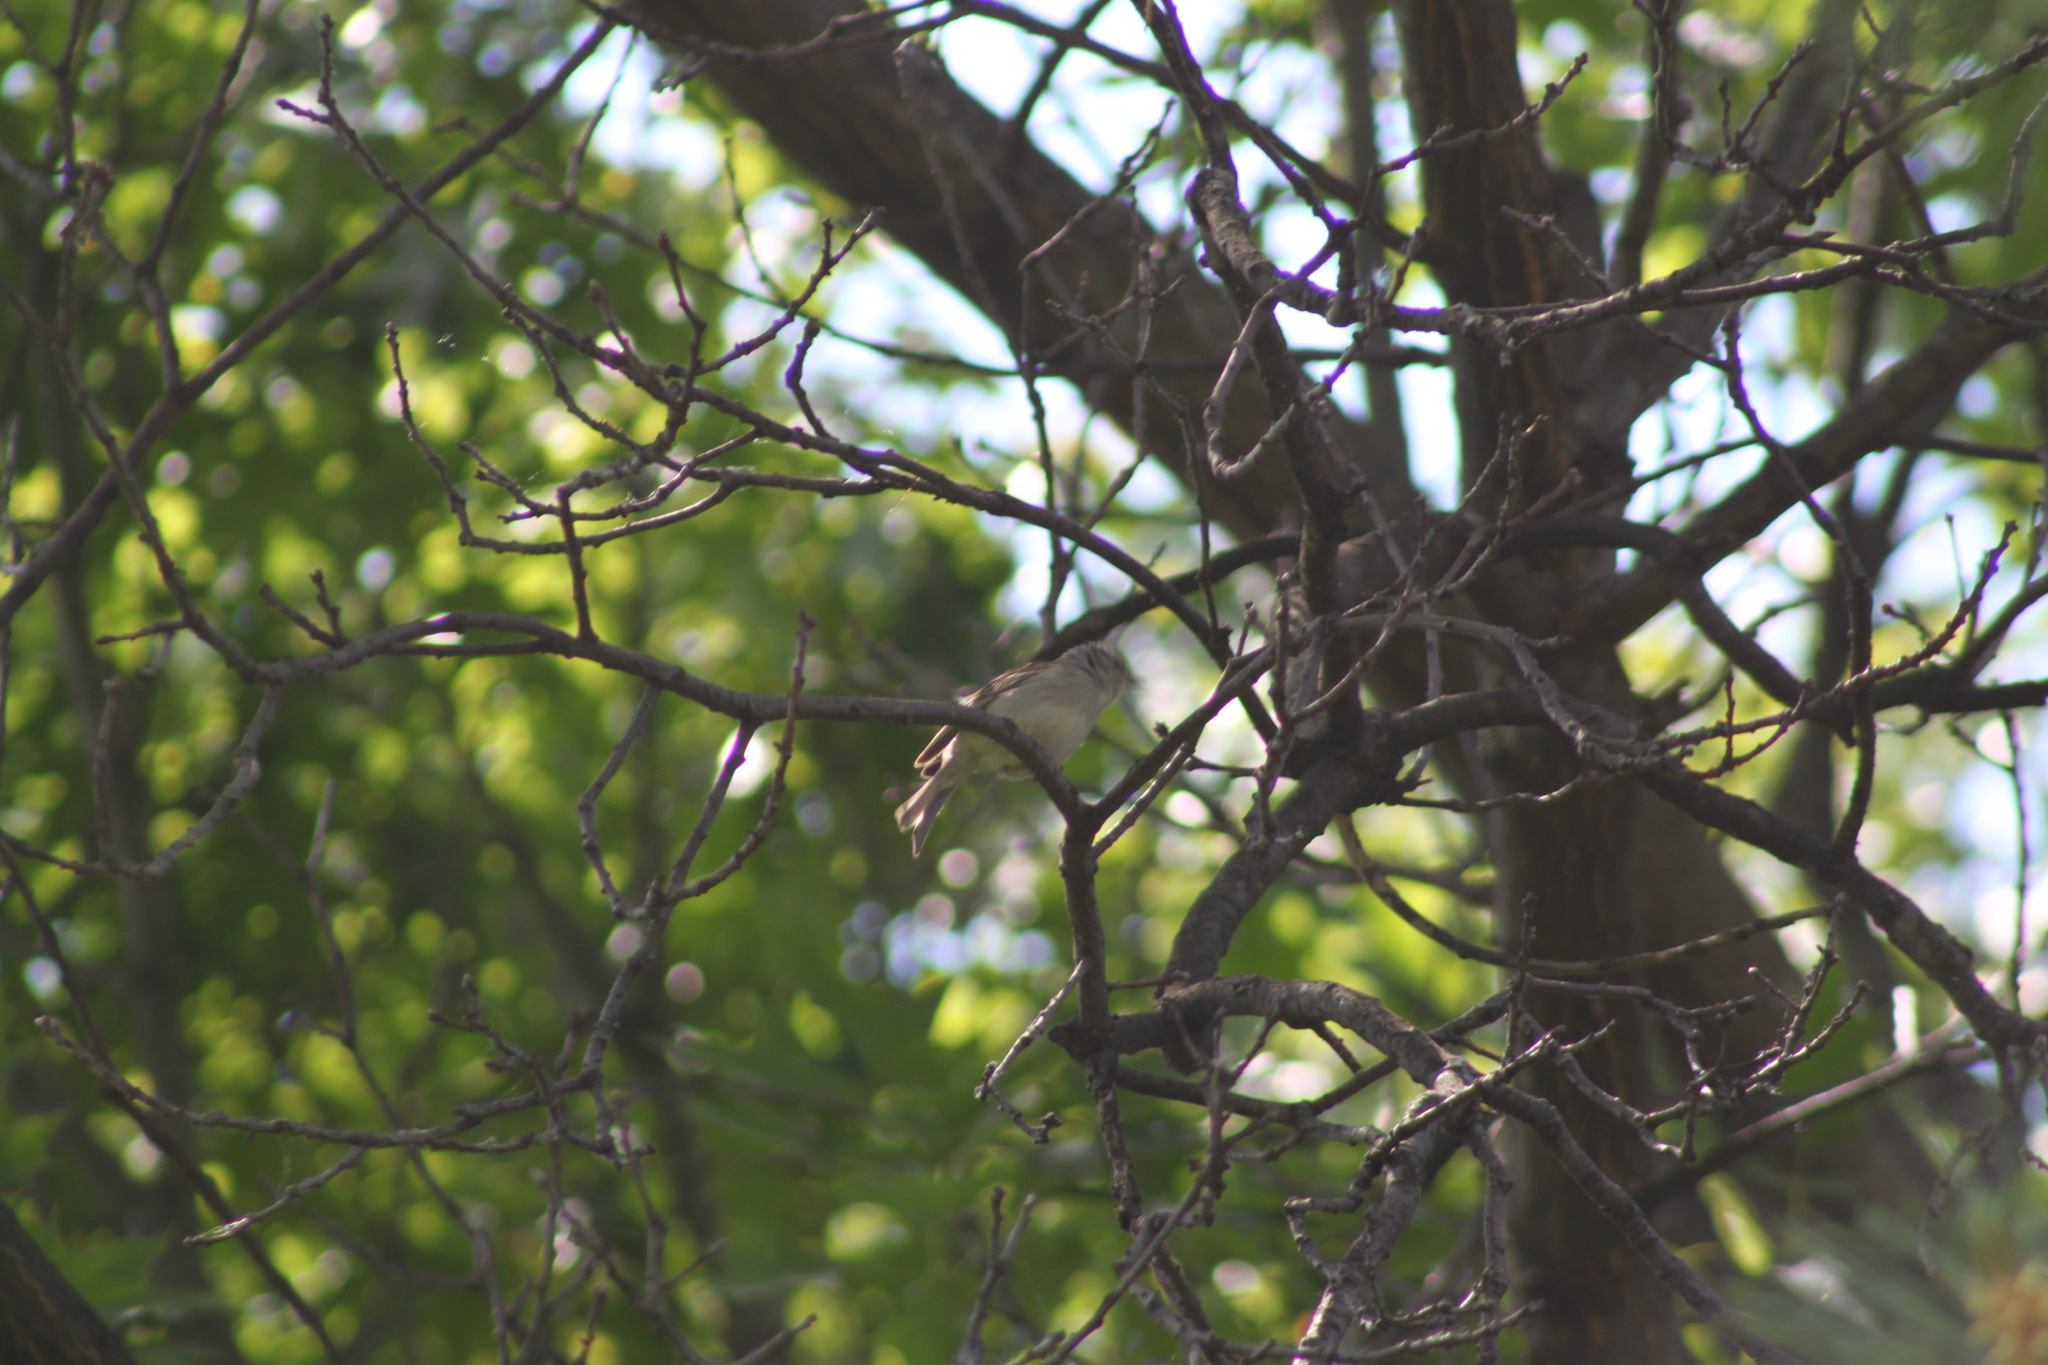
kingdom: Animalia
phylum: Chordata
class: Aves
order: Passeriformes
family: Passerellidae
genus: Spizella
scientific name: Spizella passerina
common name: Chipping sparrow
